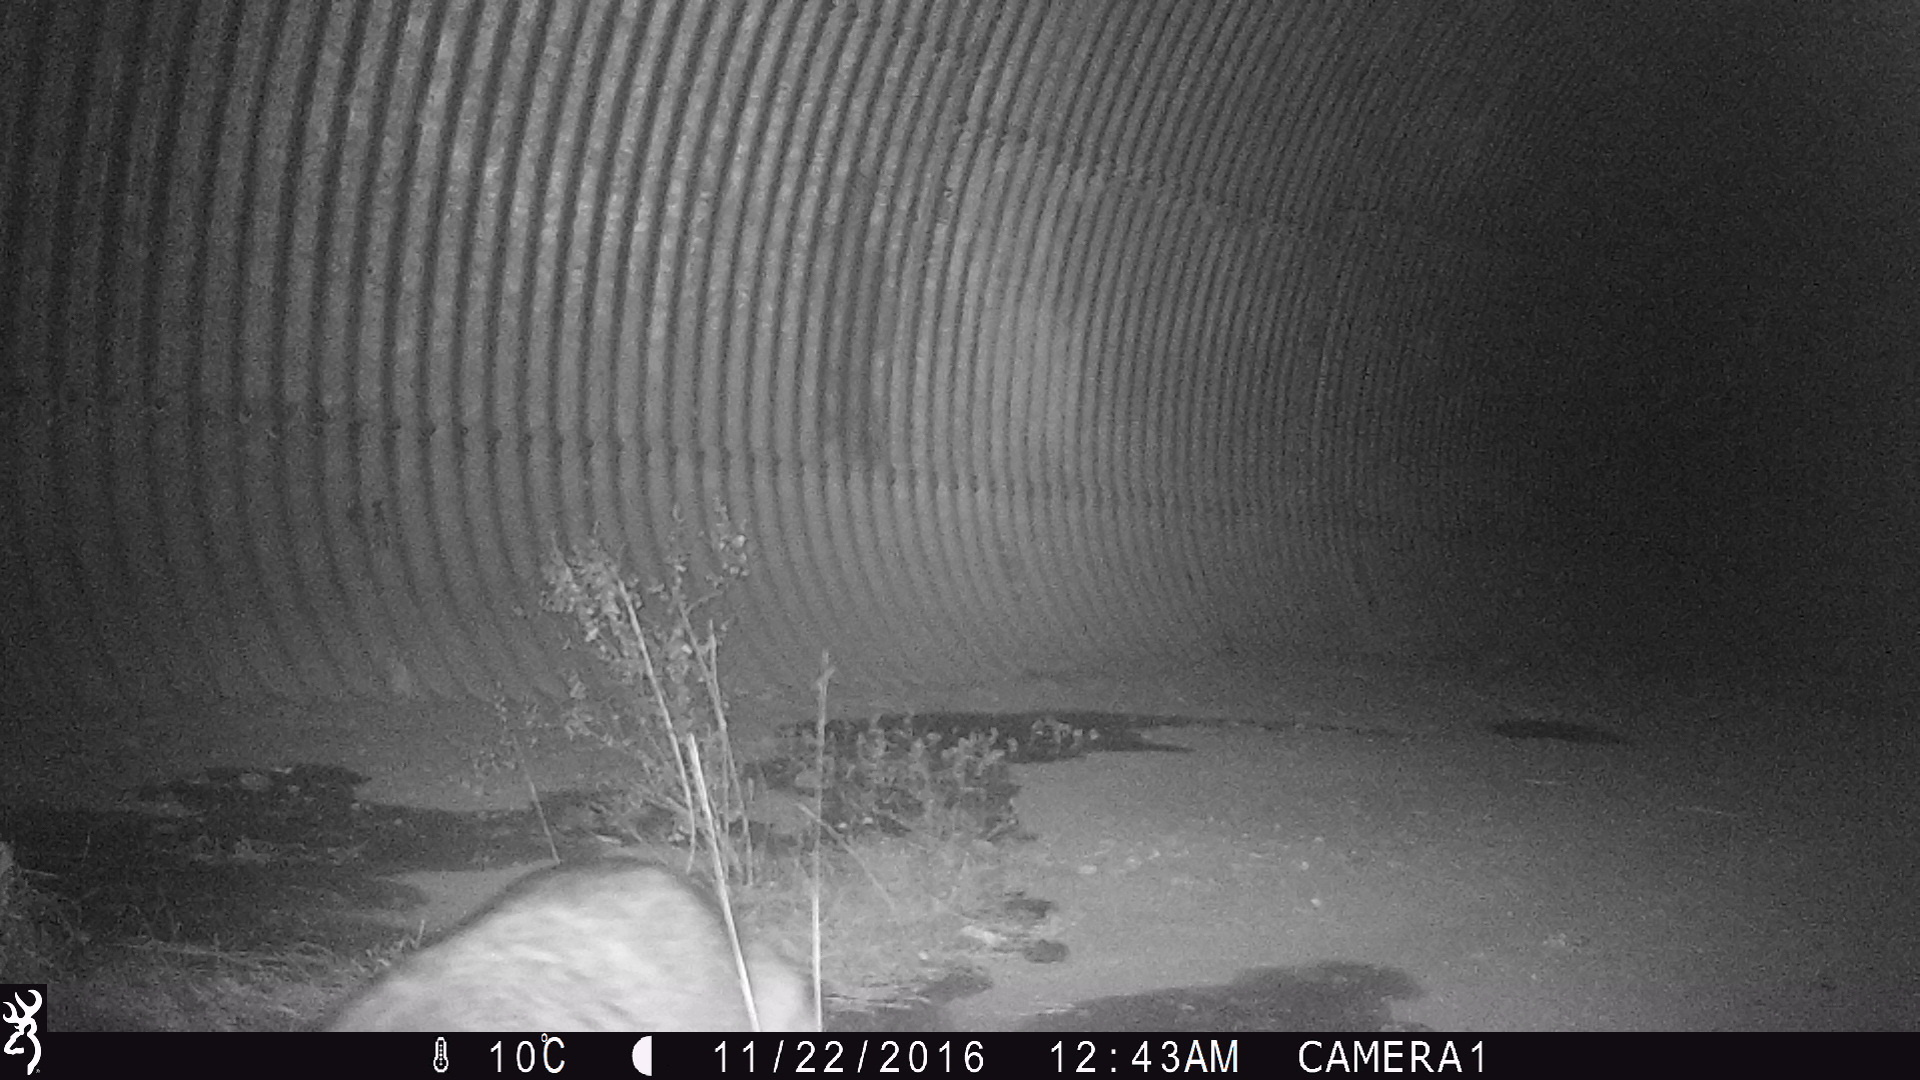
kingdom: Animalia
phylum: Chordata
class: Mammalia
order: Carnivora
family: Procyonidae
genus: Procyon
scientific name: Procyon lotor
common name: Raccoon
